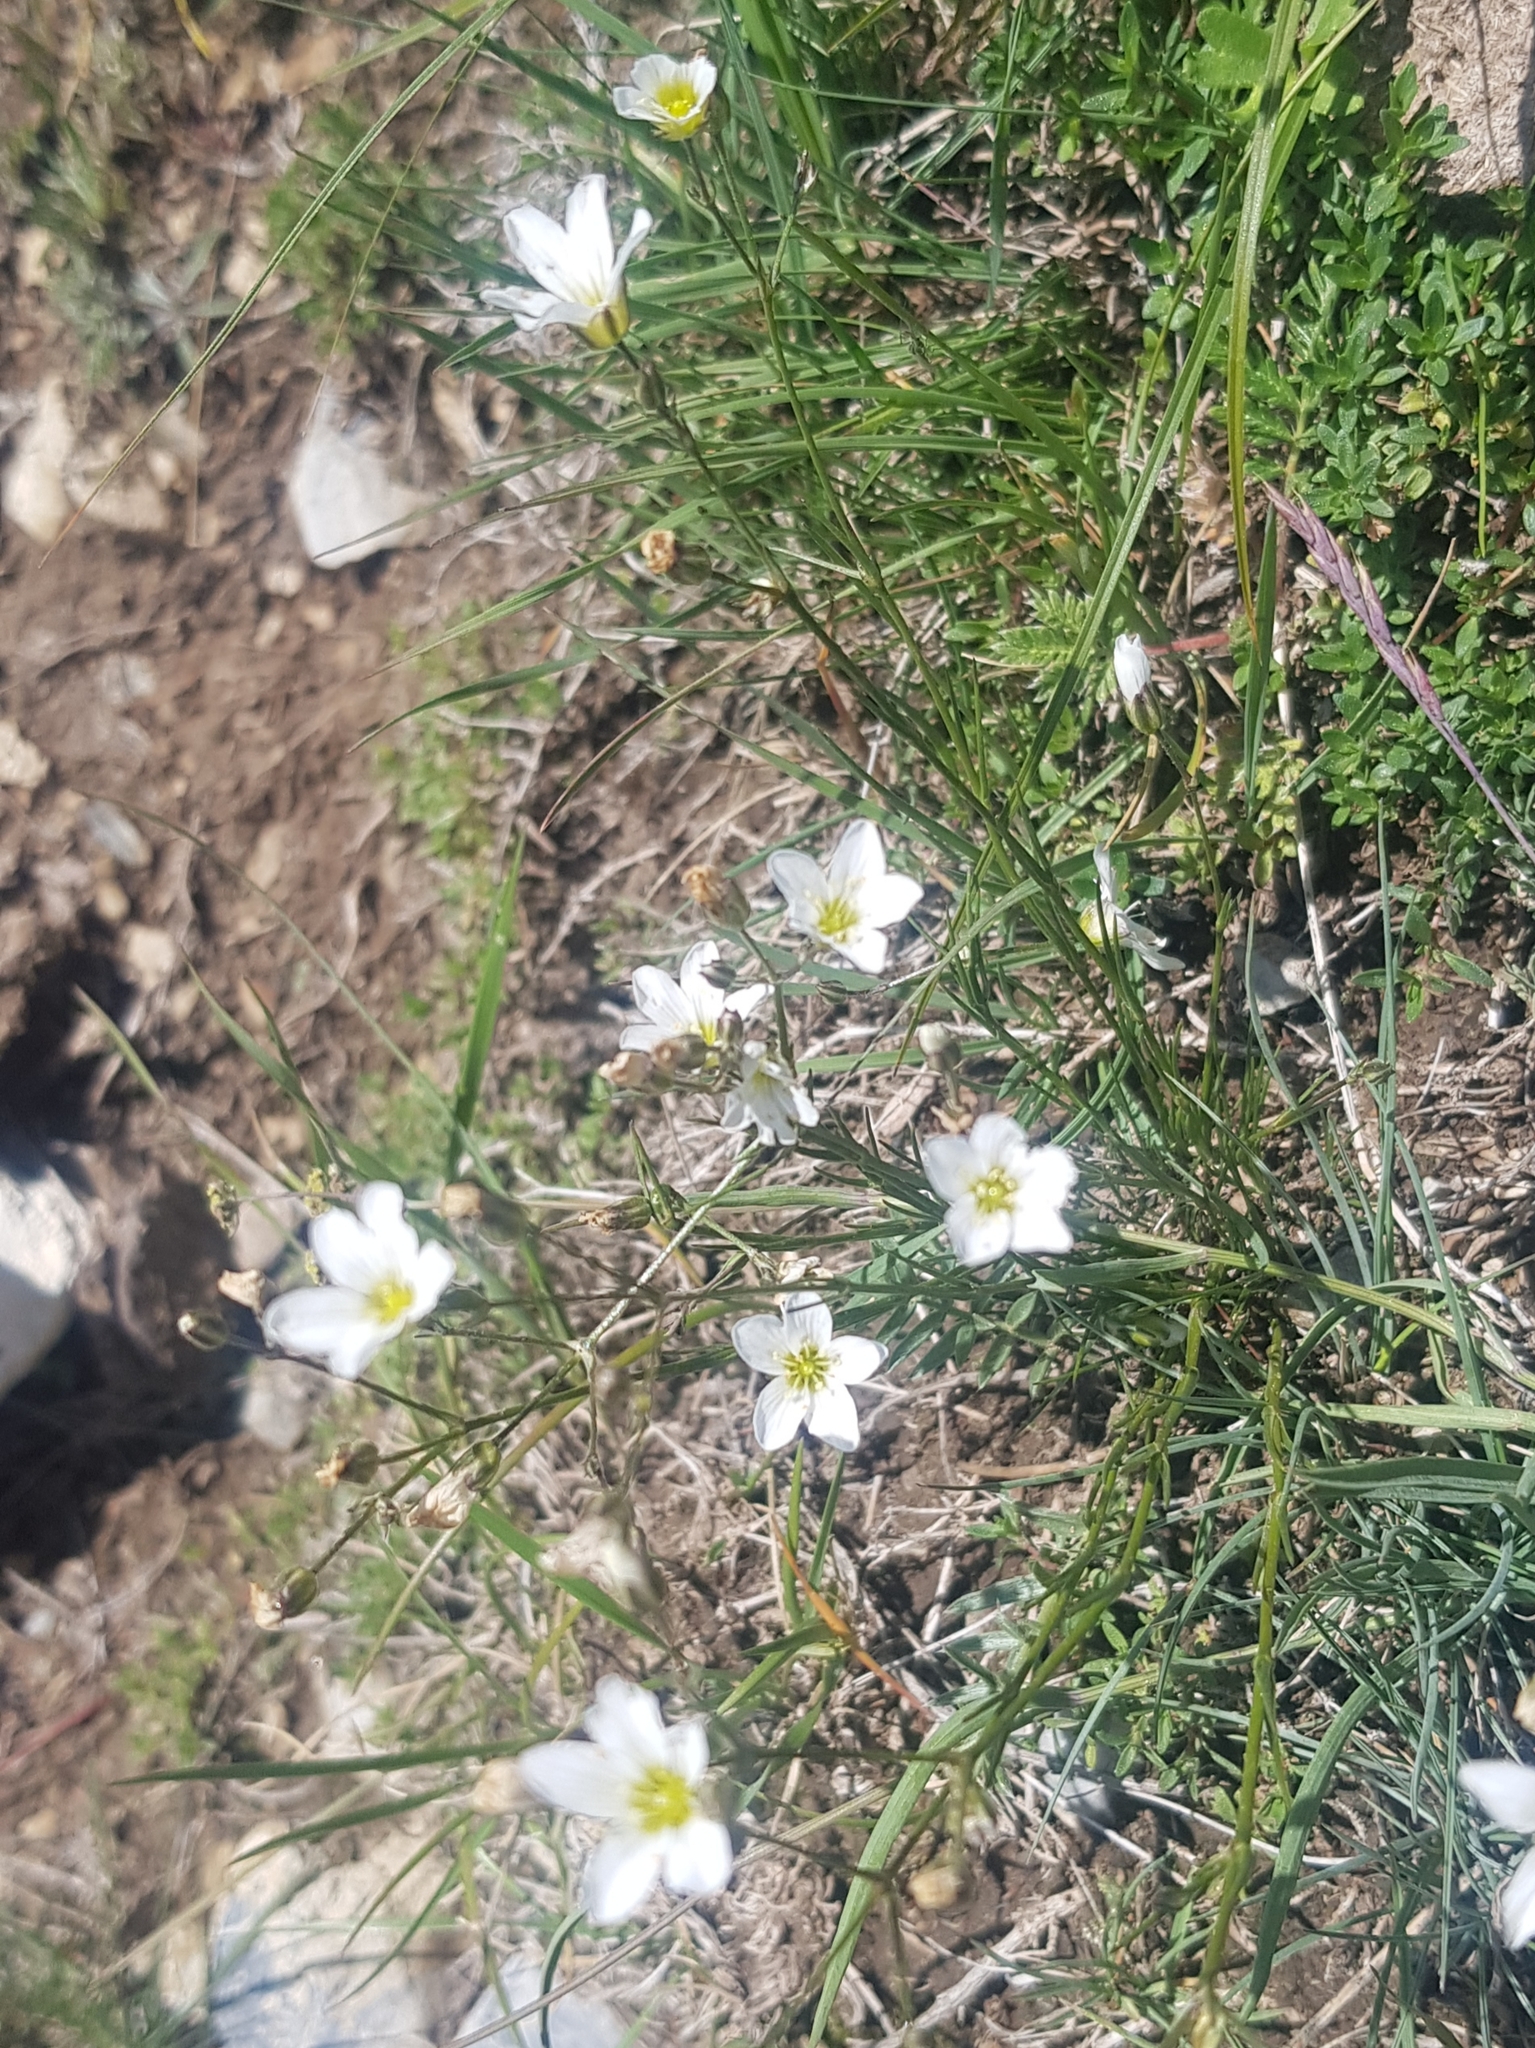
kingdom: Plantae
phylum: Tracheophyta
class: Magnoliopsida
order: Caryophyllales
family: Caryophyllaceae
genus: Eremogone
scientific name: Eremogone capillaris
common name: Slender mountain sandwort
